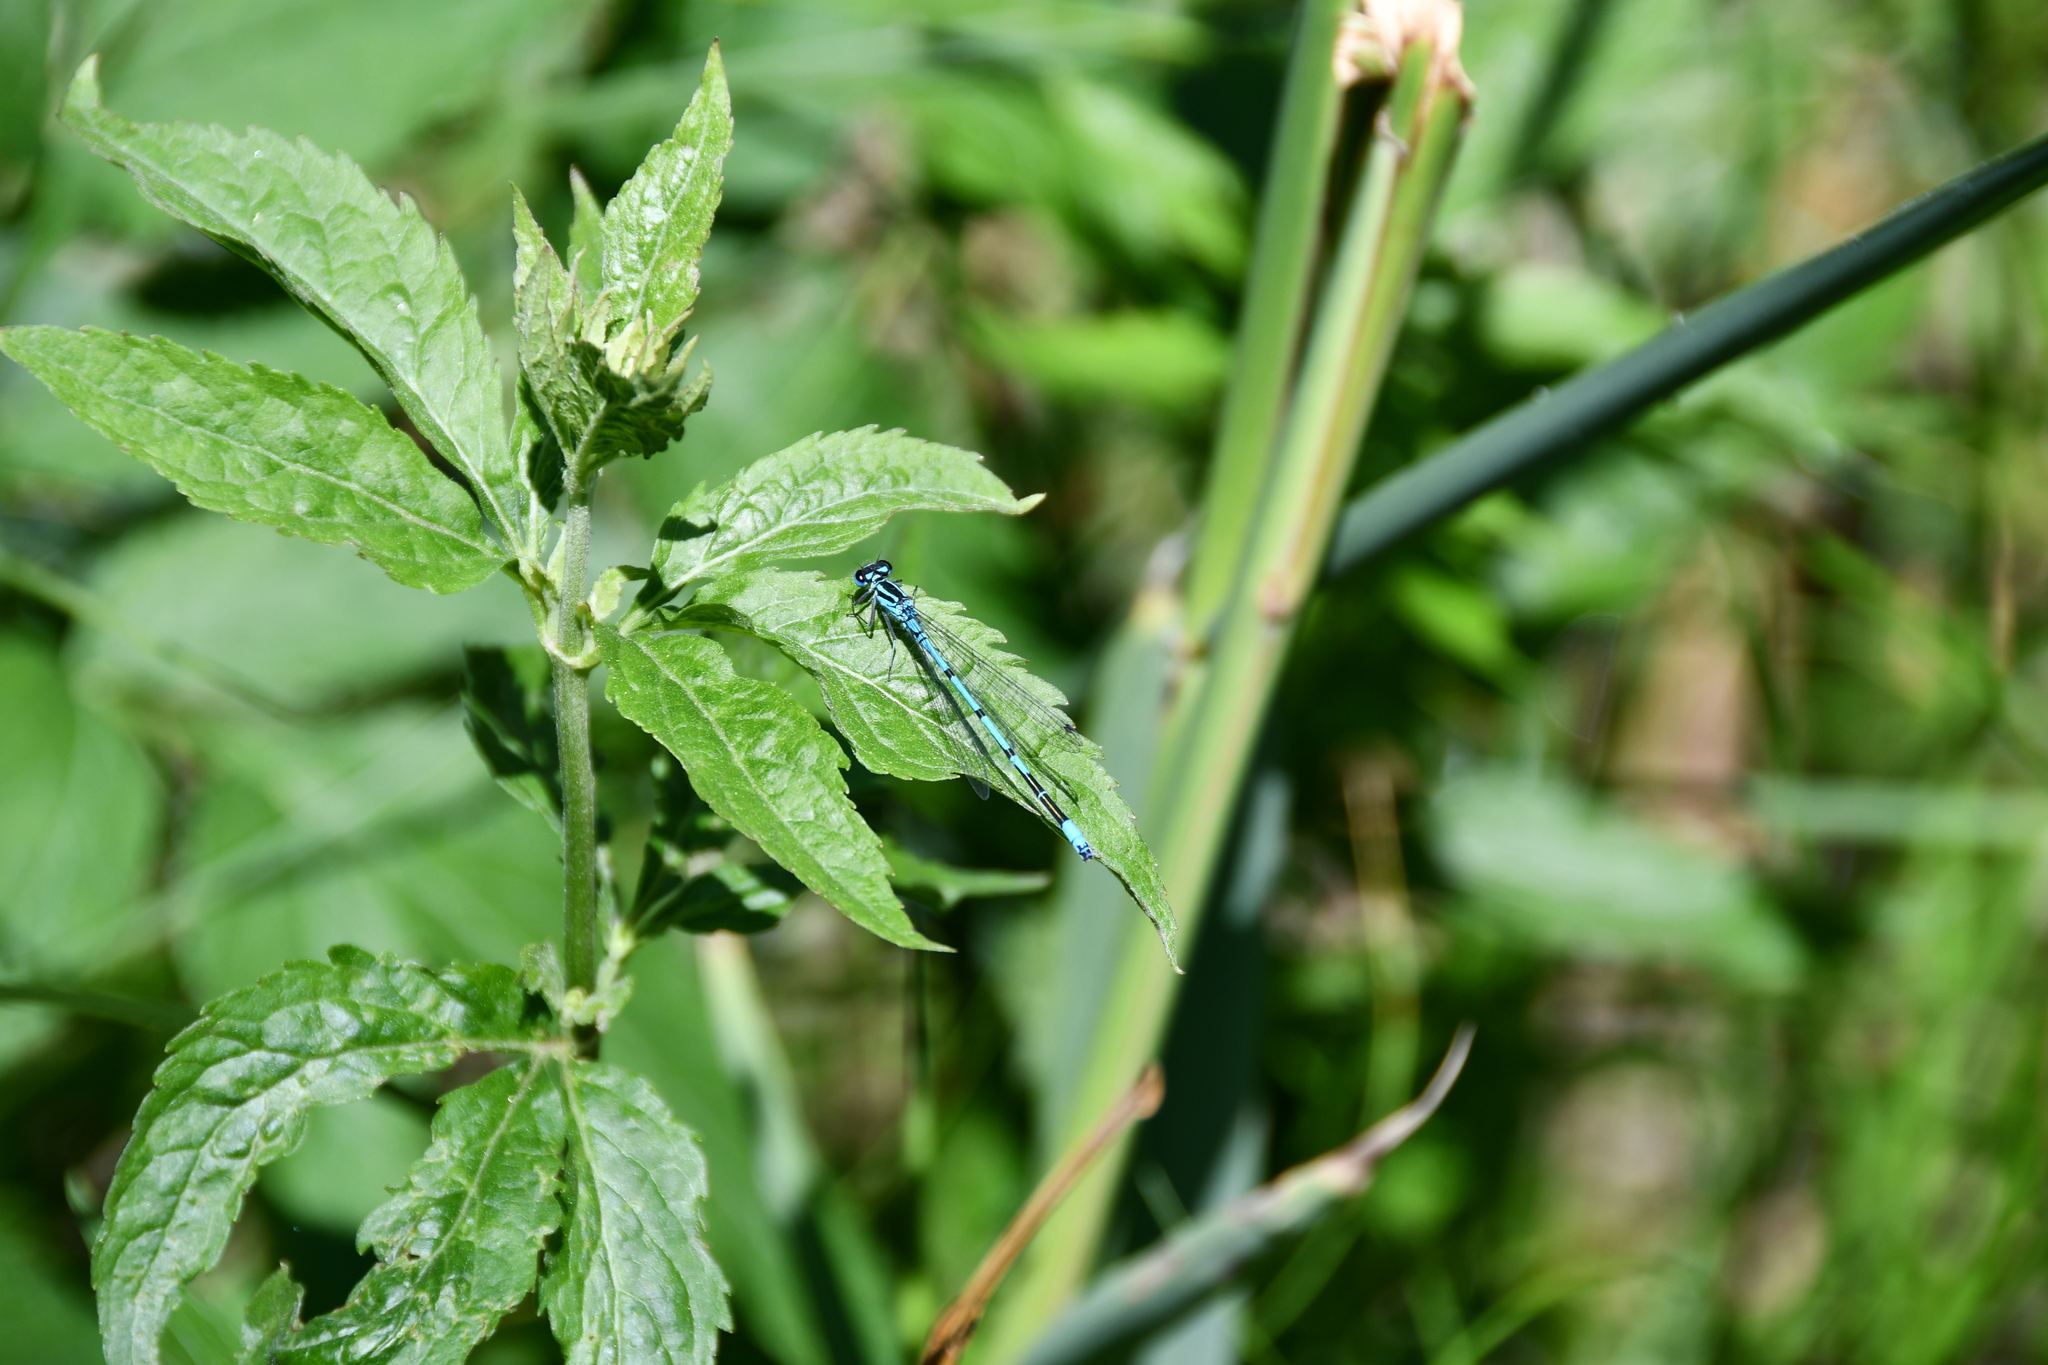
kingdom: Animalia
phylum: Arthropoda
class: Insecta
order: Odonata
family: Coenagrionidae
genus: Coenagrion
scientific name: Coenagrion puella
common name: Azure damselfly
